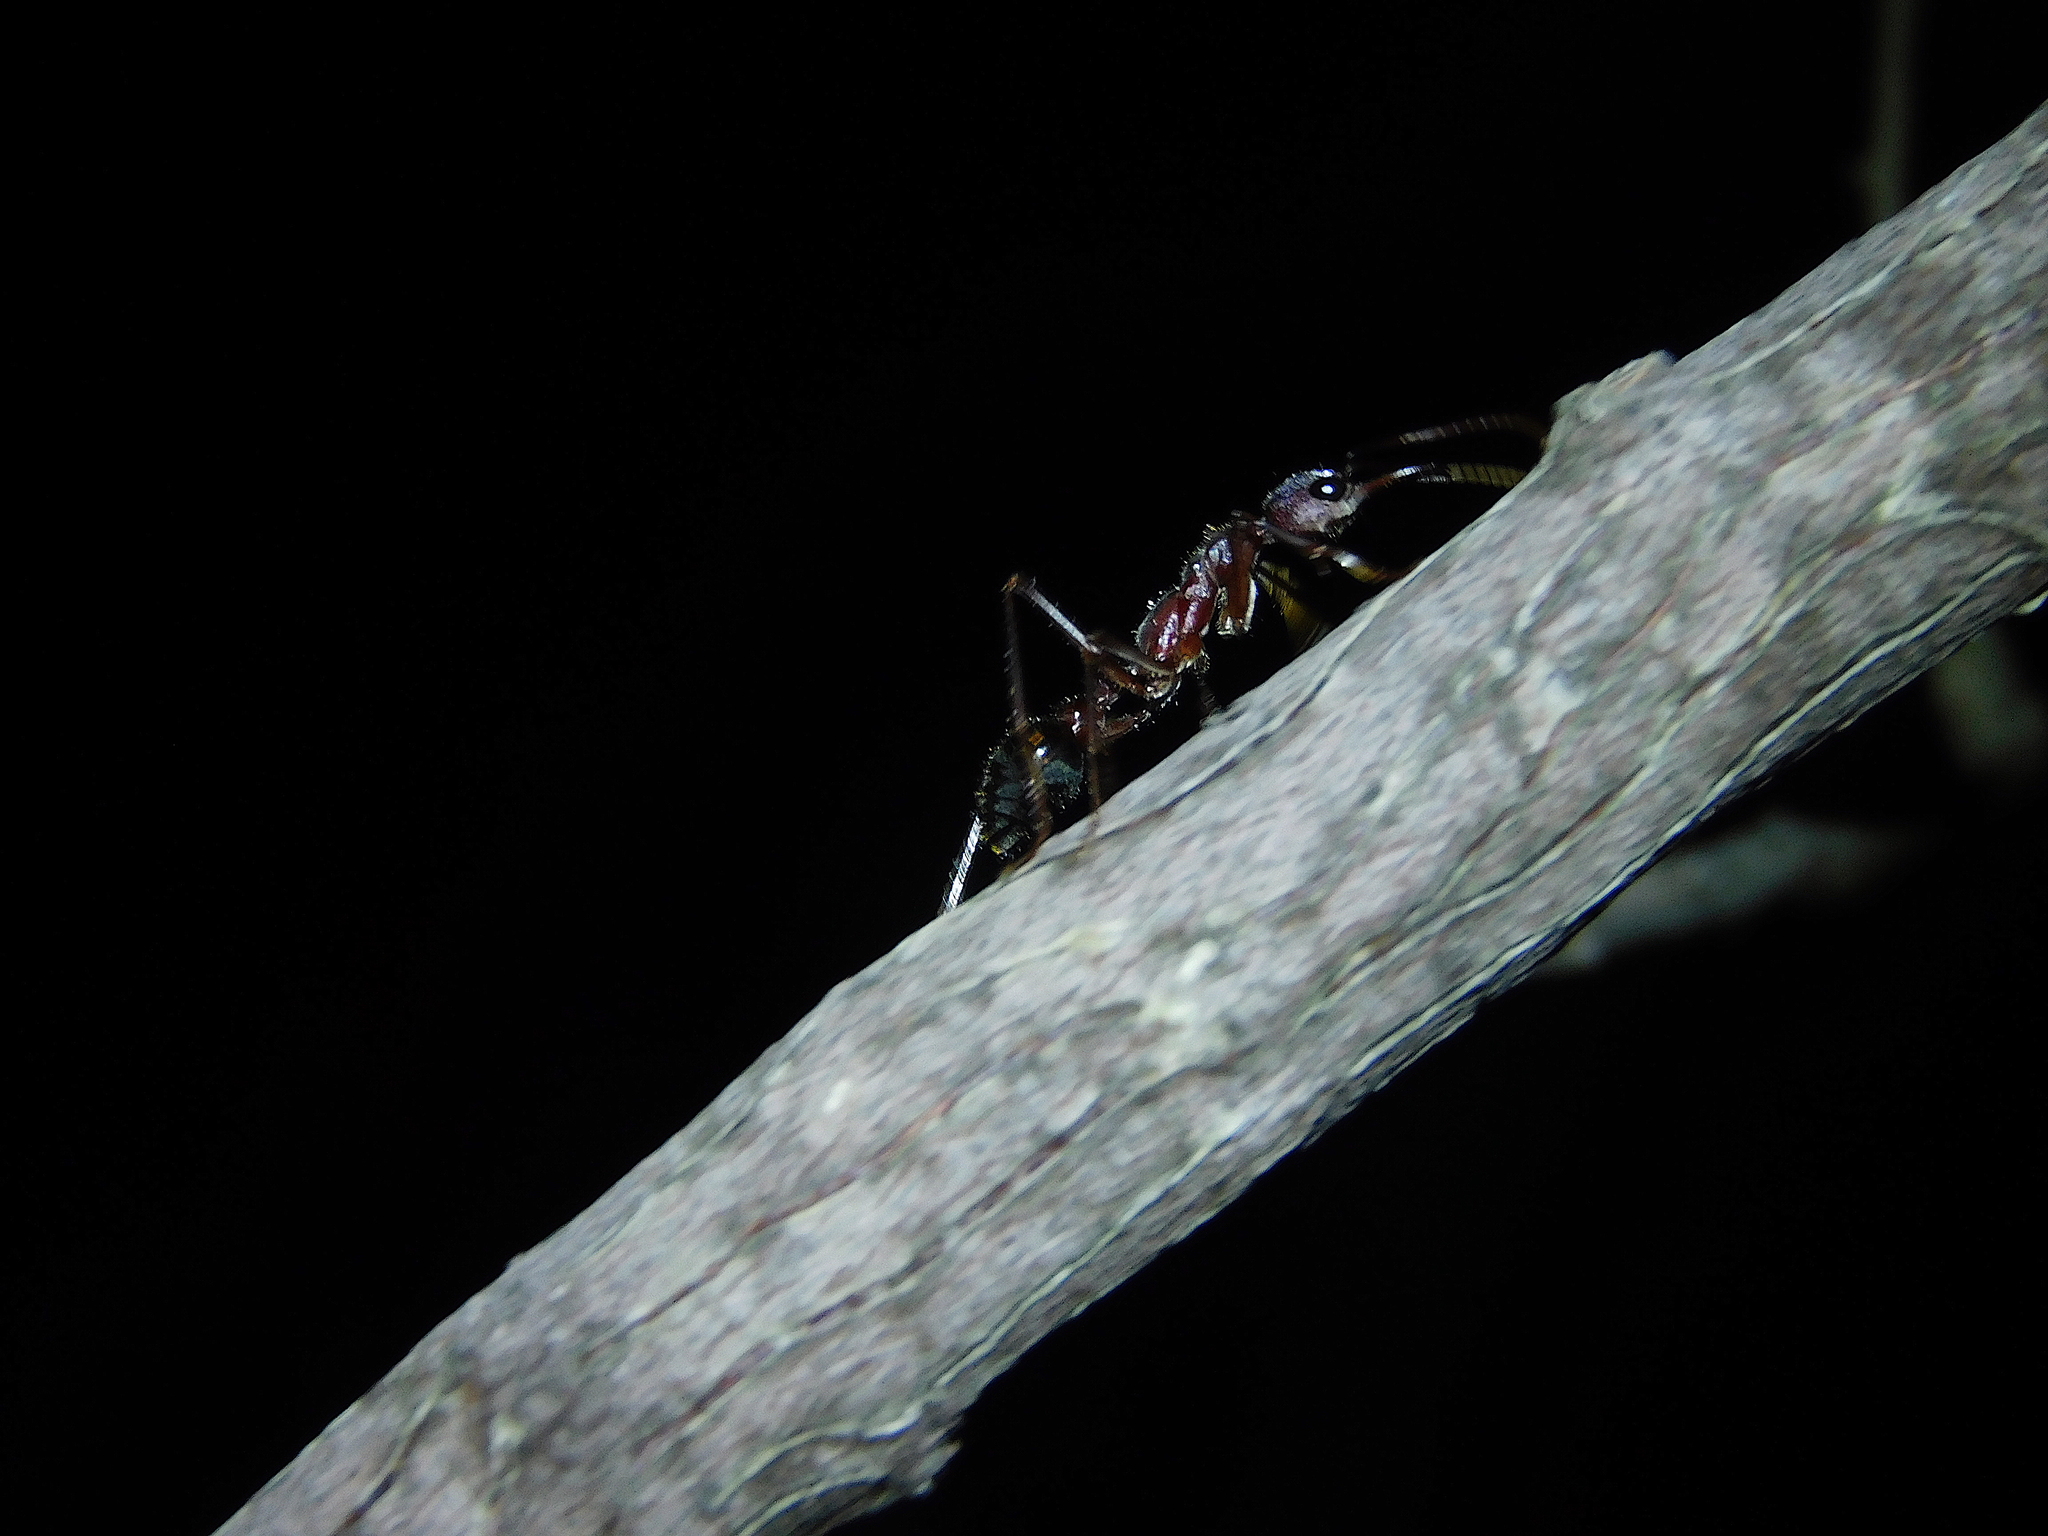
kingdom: Animalia
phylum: Arthropoda
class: Insecta
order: Hymenoptera
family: Formicidae
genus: Myrmecia
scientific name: Myrmecia forficata
